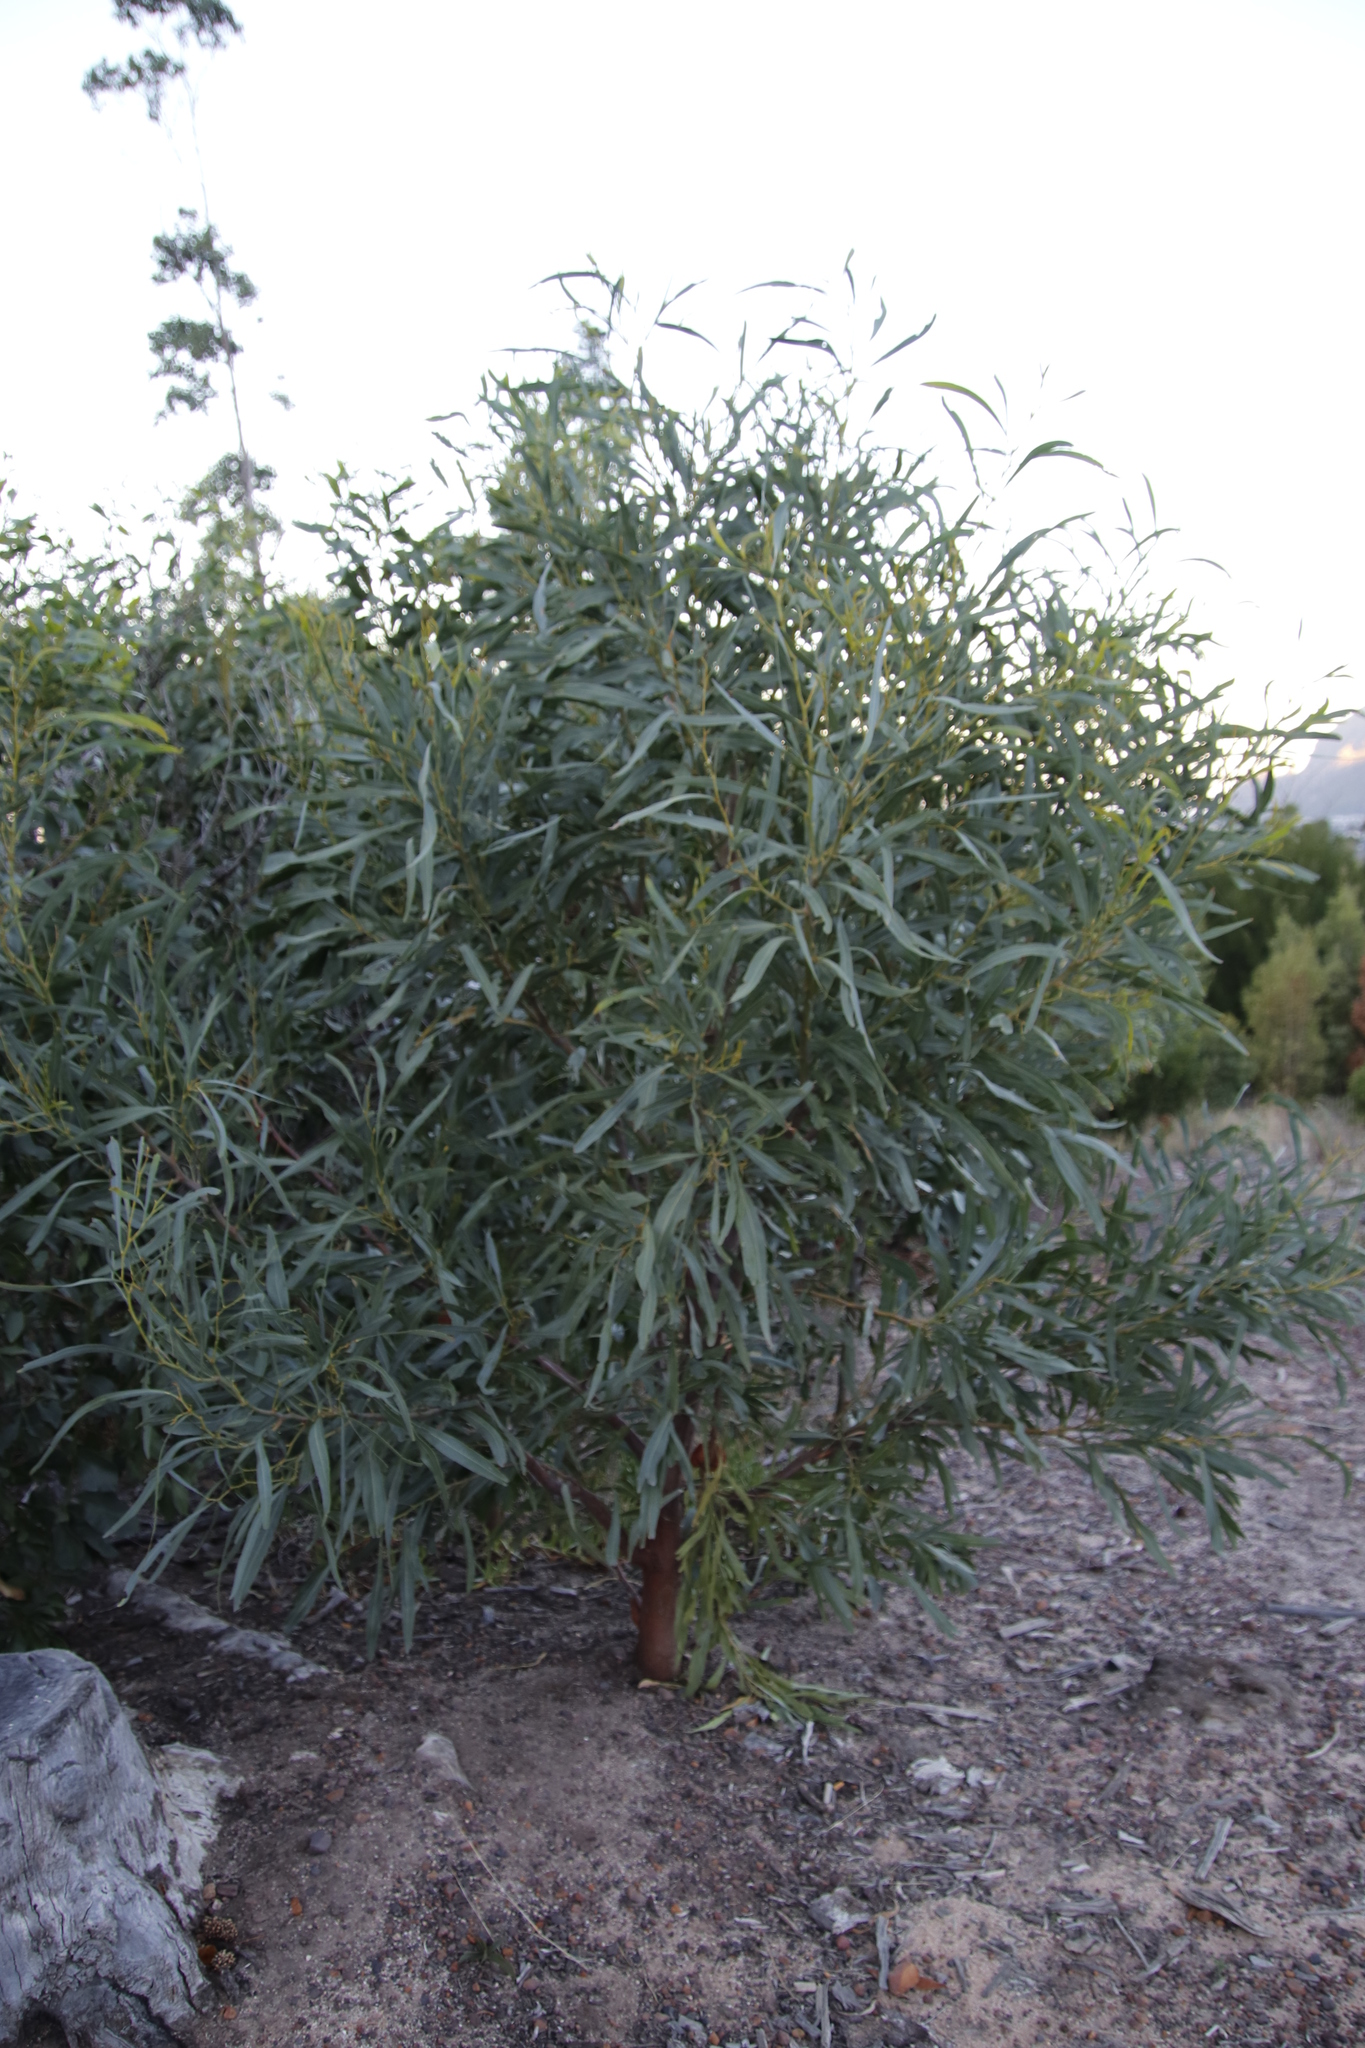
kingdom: Plantae
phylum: Tracheophyta
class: Magnoliopsida
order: Fabales
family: Fabaceae
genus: Acacia
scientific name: Acacia saligna
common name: Orange wattle
